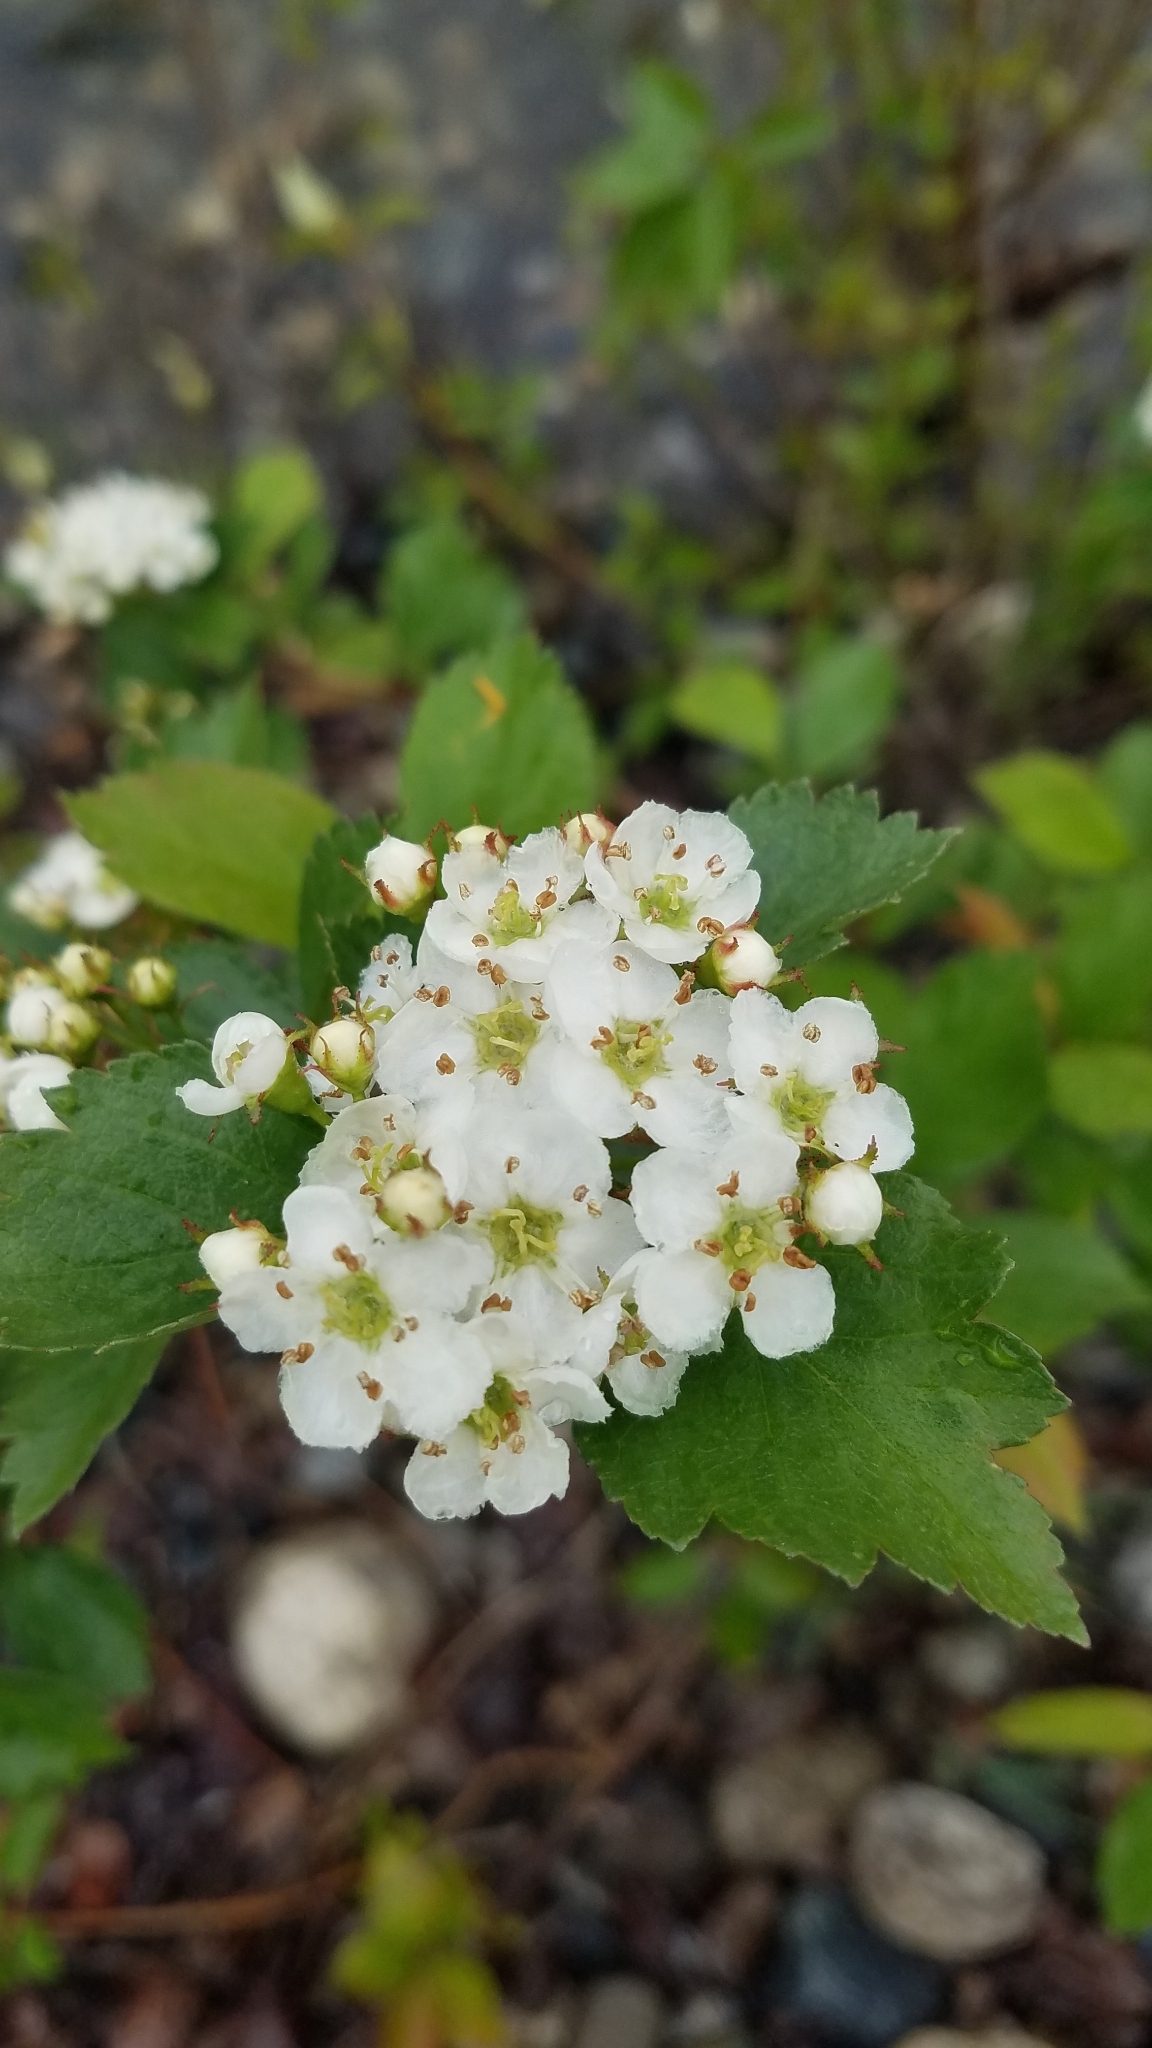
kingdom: Plantae
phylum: Tracheophyta
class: Magnoliopsida
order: Rosales
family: Rosaceae
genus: Crataegus
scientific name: Crataegus douglasii
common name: Black hawthorn
